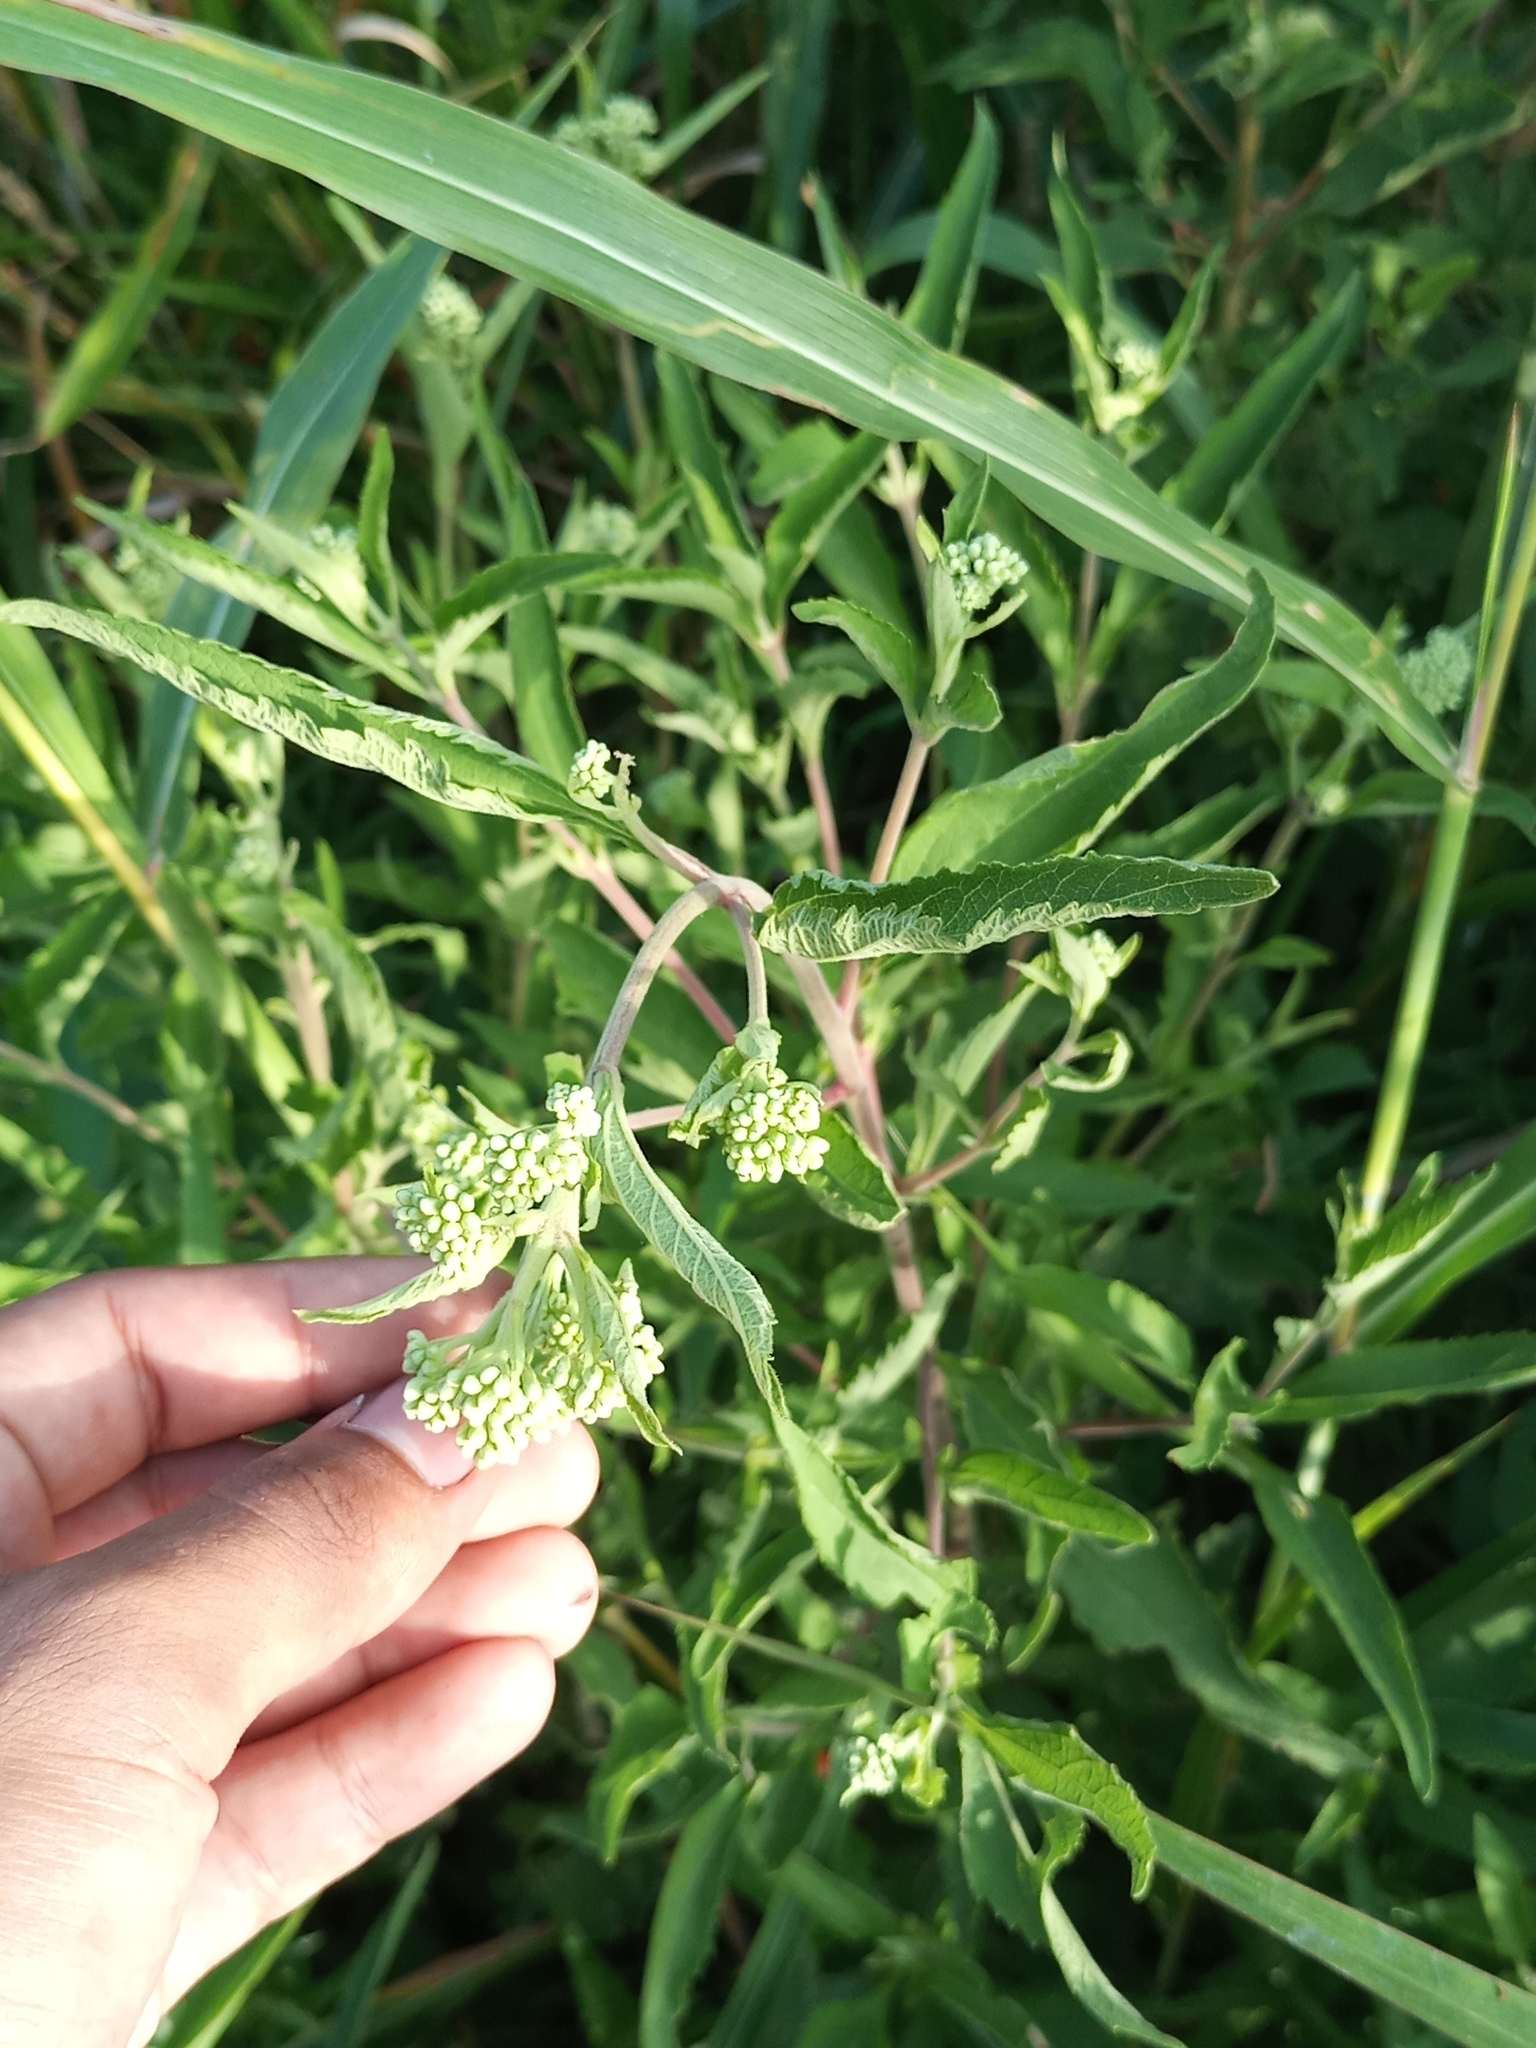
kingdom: Plantae
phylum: Tracheophyta
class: Magnoliopsida
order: Asterales
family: Asteraceae
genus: Austroeupatorium
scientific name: Austroeupatorium inulifolium
